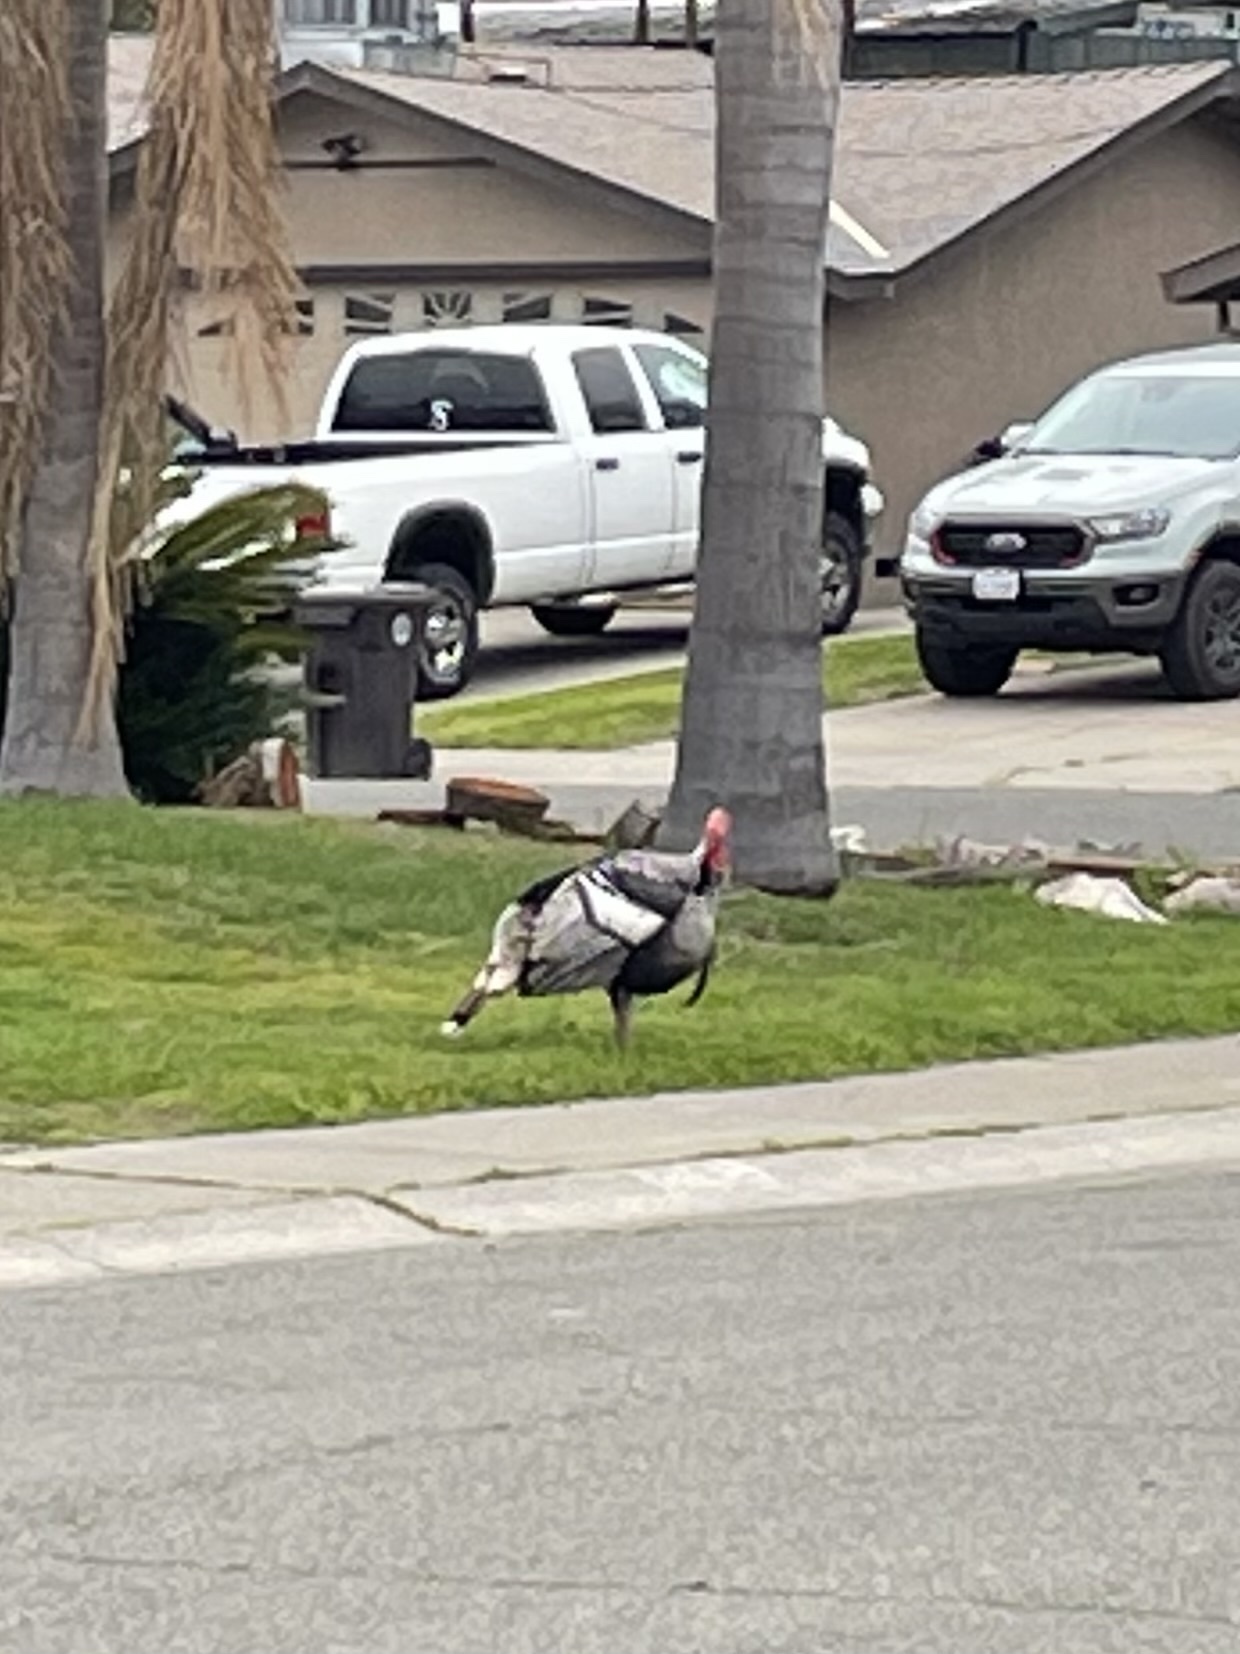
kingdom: Animalia
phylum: Chordata
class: Aves
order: Galliformes
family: Phasianidae
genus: Meleagris
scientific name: Meleagris gallopavo
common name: Wild turkey
